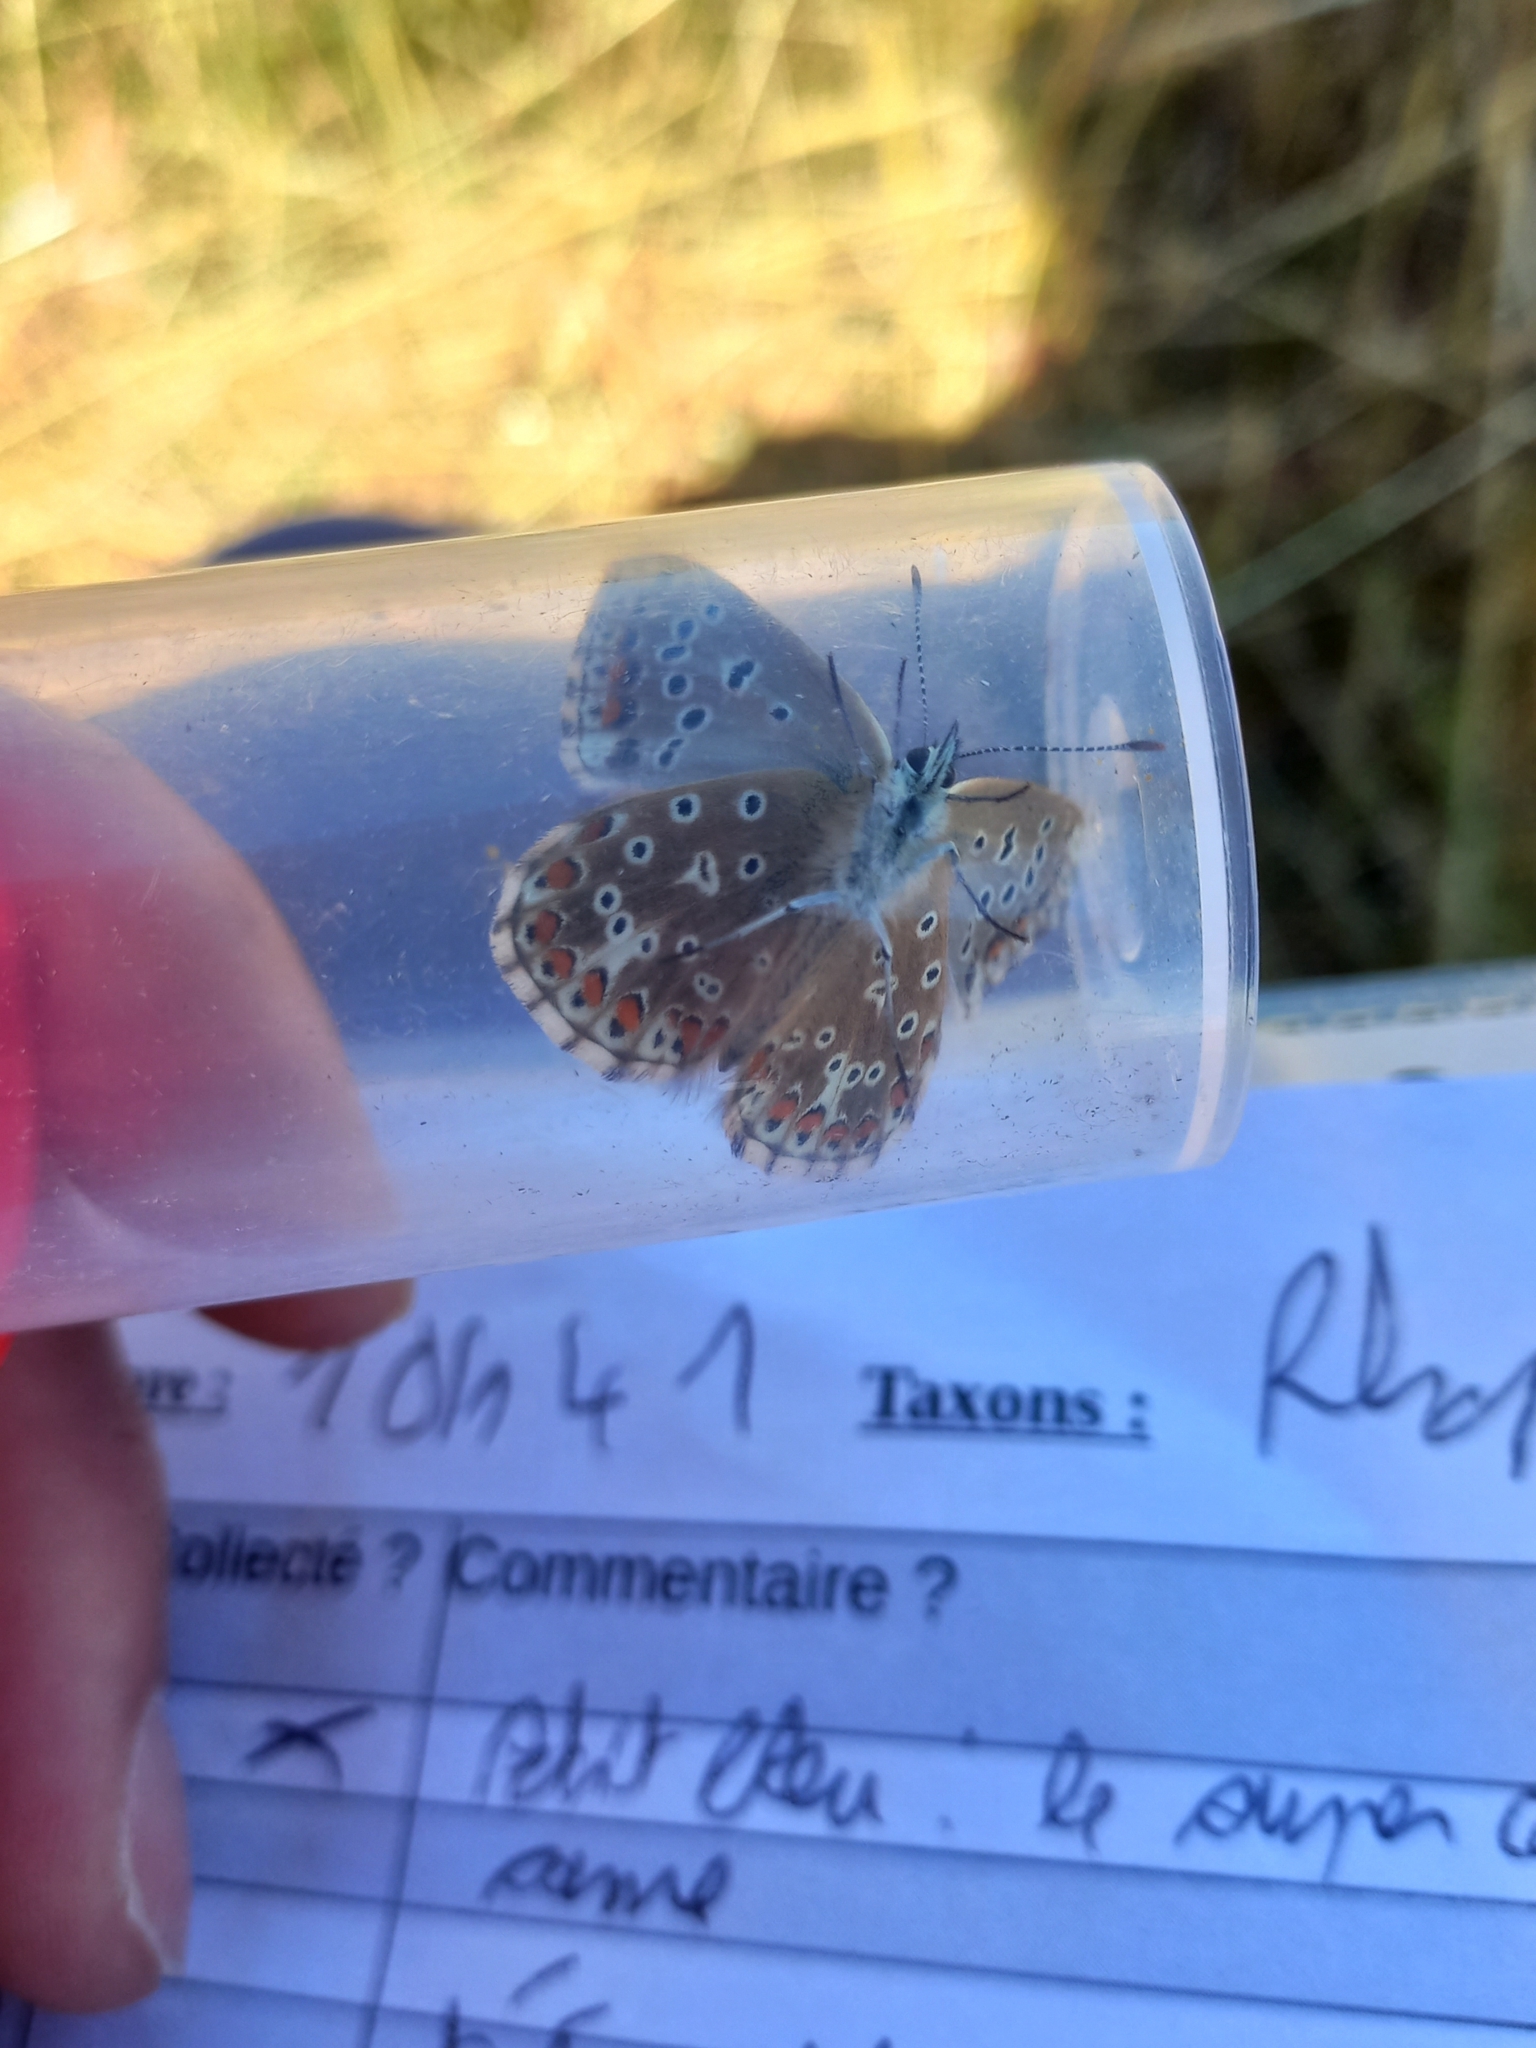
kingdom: Animalia
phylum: Arthropoda
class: Insecta
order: Lepidoptera
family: Lycaenidae
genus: Lysandra
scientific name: Lysandra bellargus
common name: Adonis blue
